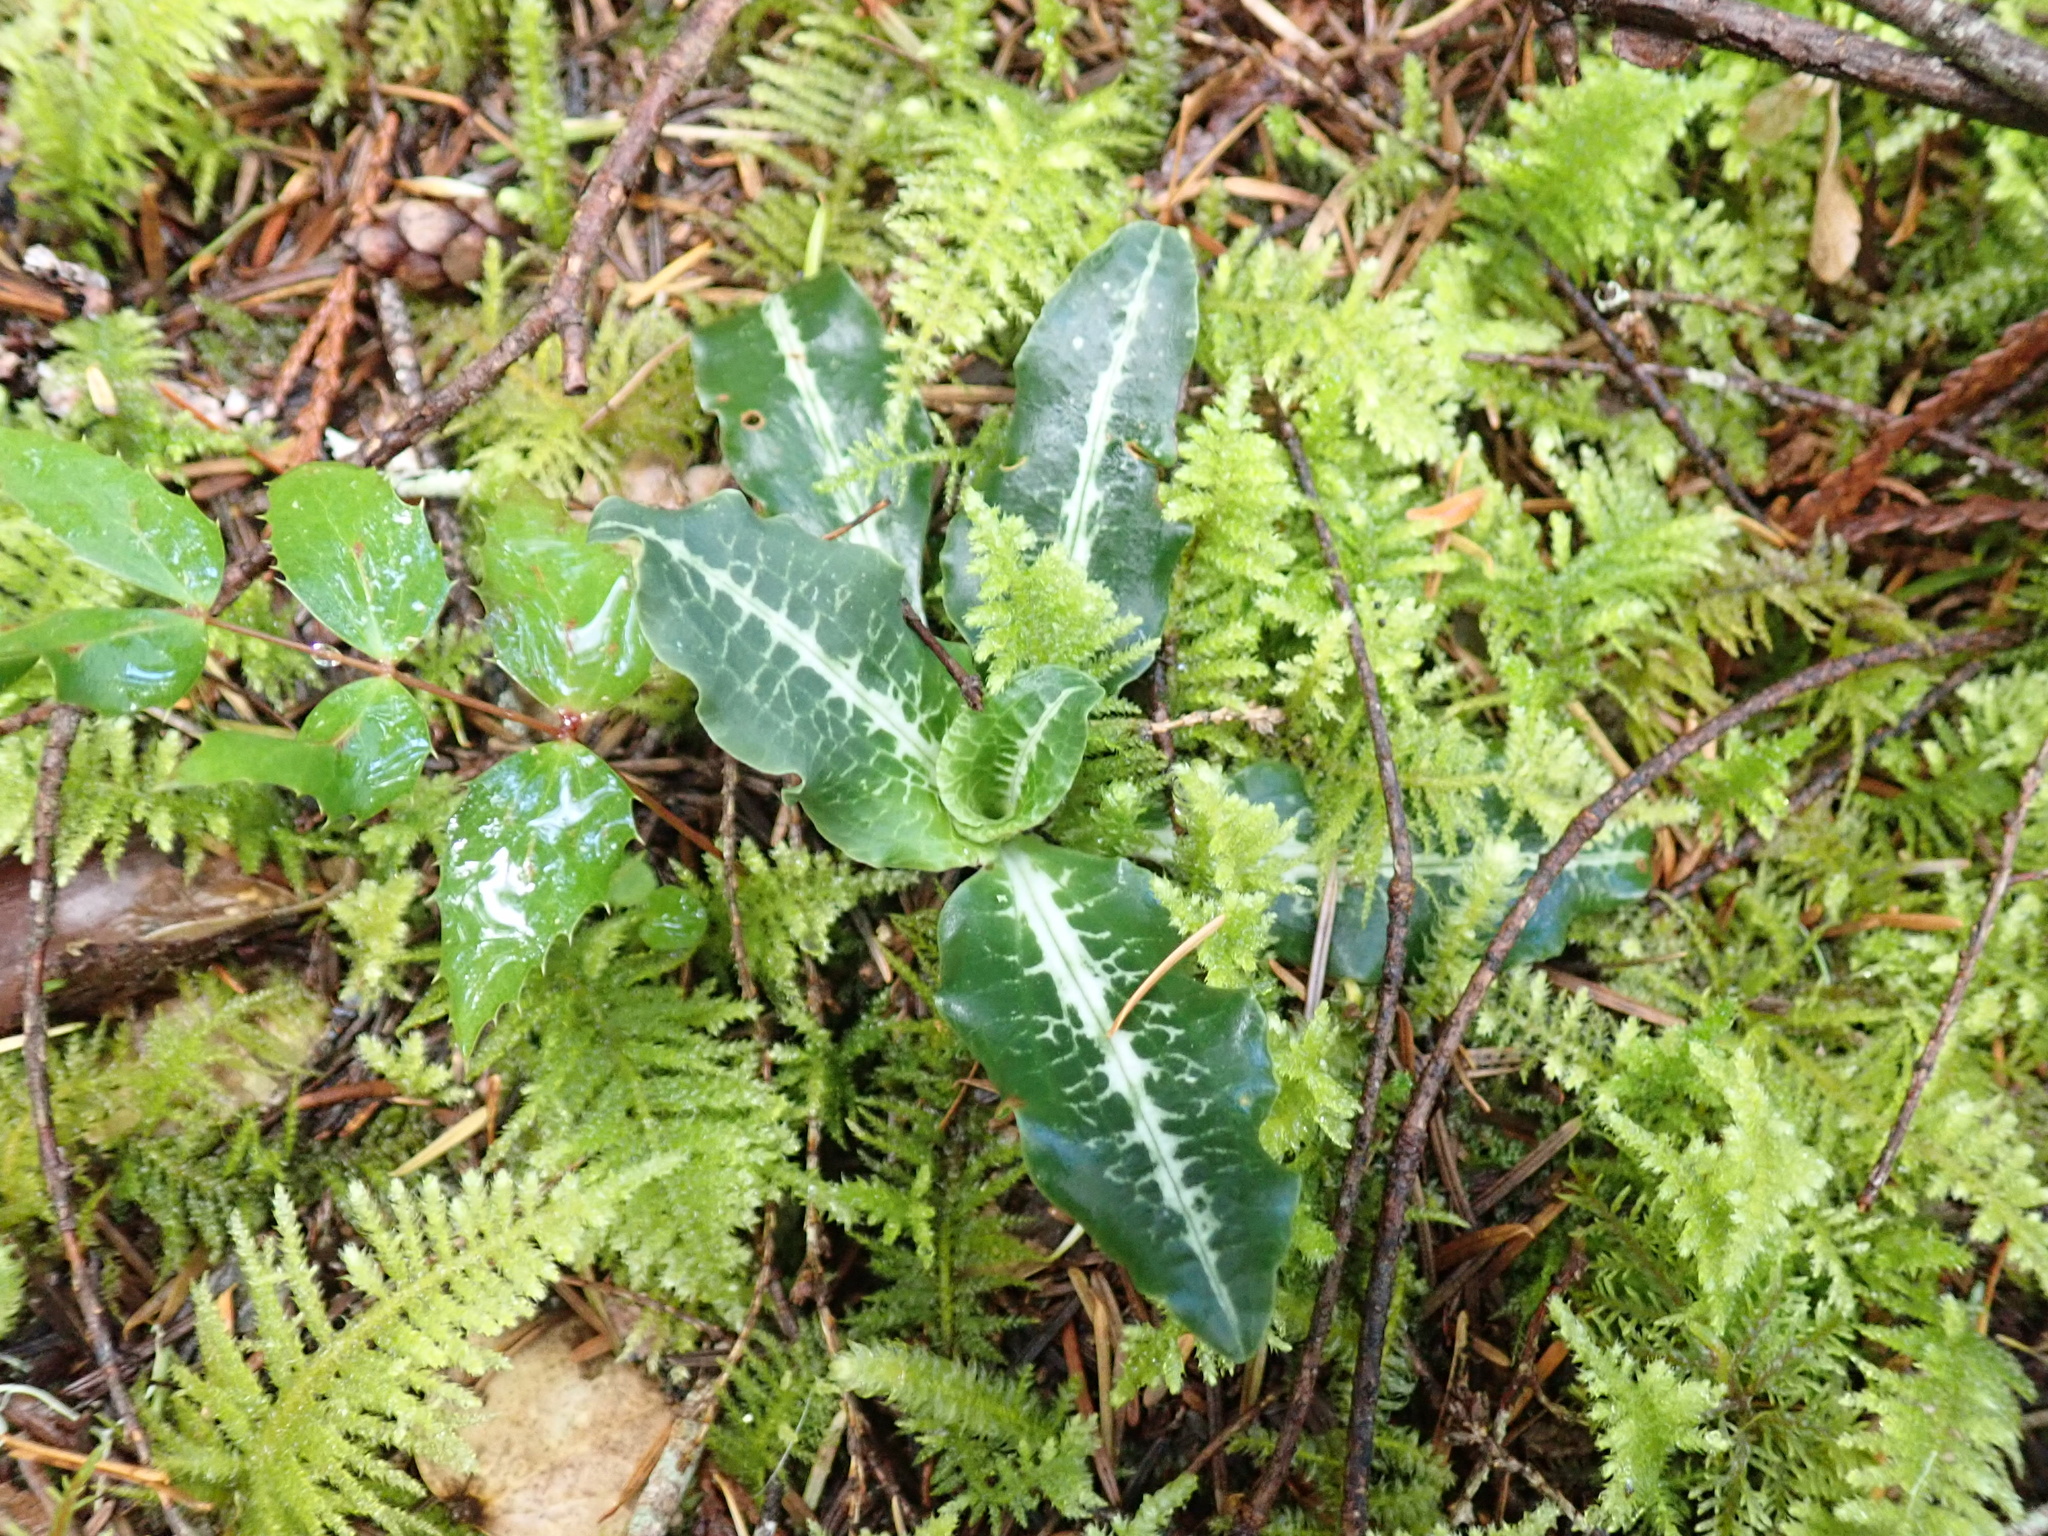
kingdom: Plantae
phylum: Tracheophyta
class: Liliopsida
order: Asparagales
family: Orchidaceae
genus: Goodyera
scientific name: Goodyera oblongifolia
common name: Giant rattlesnake-plantain
